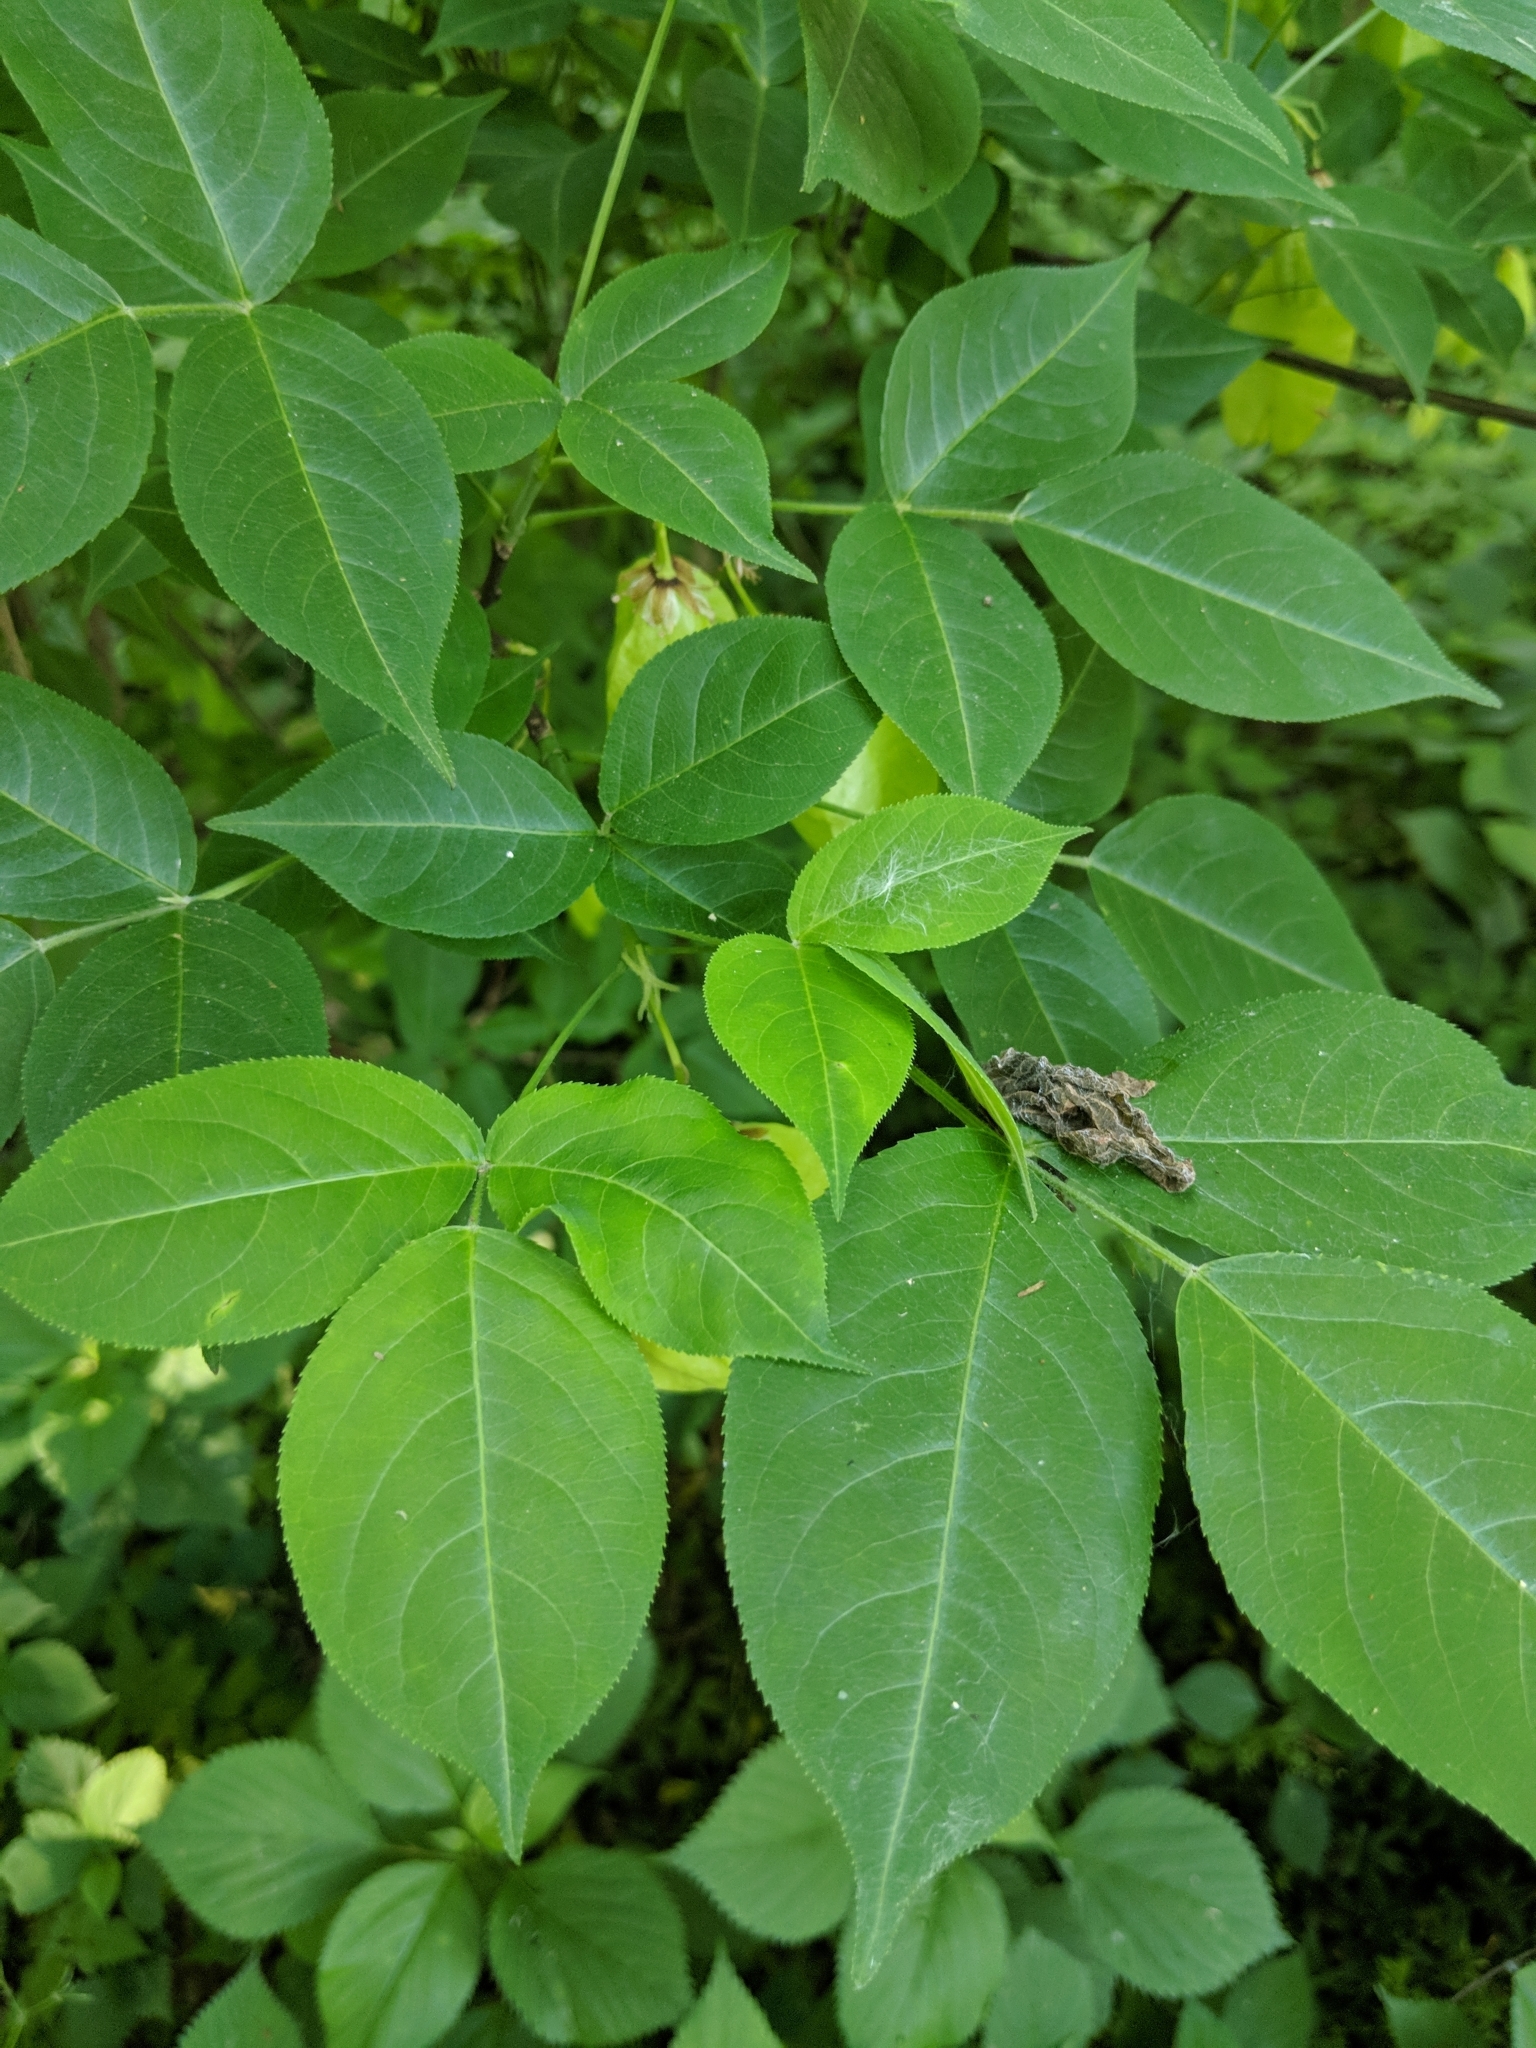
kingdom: Plantae
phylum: Tracheophyta
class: Magnoliopsida
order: Crossosomatales
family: Staphyleaceae
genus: Staphylea
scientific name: Staphylea trifolia
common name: American bladdernut
